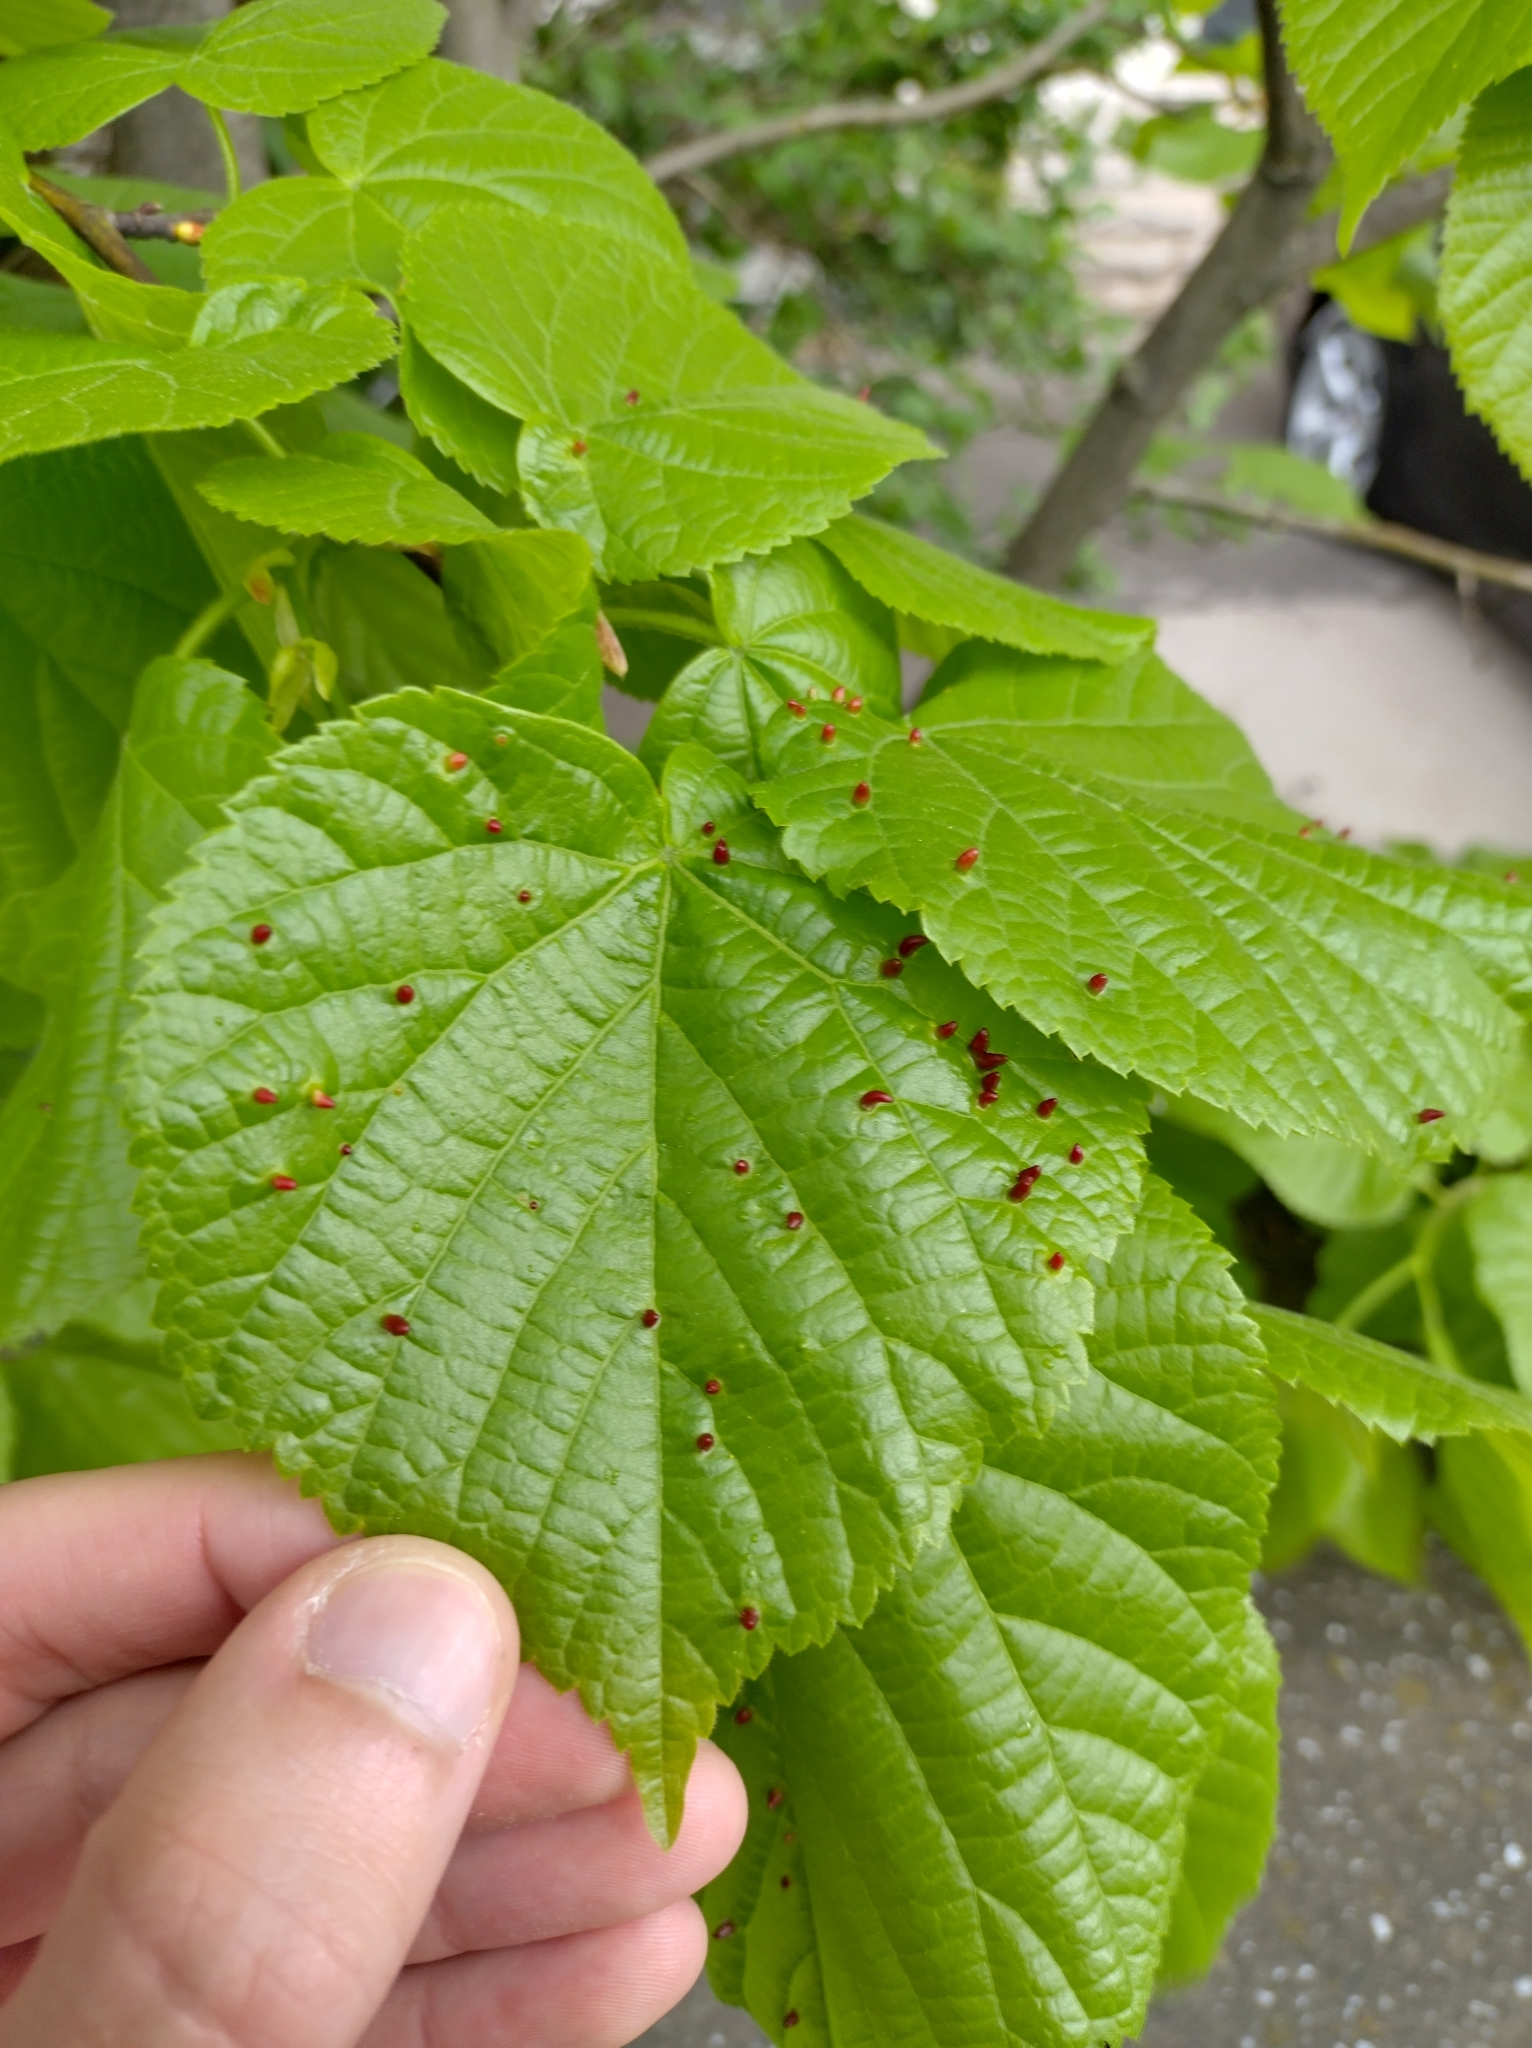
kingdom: Animalia
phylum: Arthropoda
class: Arachnida
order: Trombidiformes
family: Eriophyidae
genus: Eriophyes
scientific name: Eriophyes tiliae
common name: Red nail gall mite
